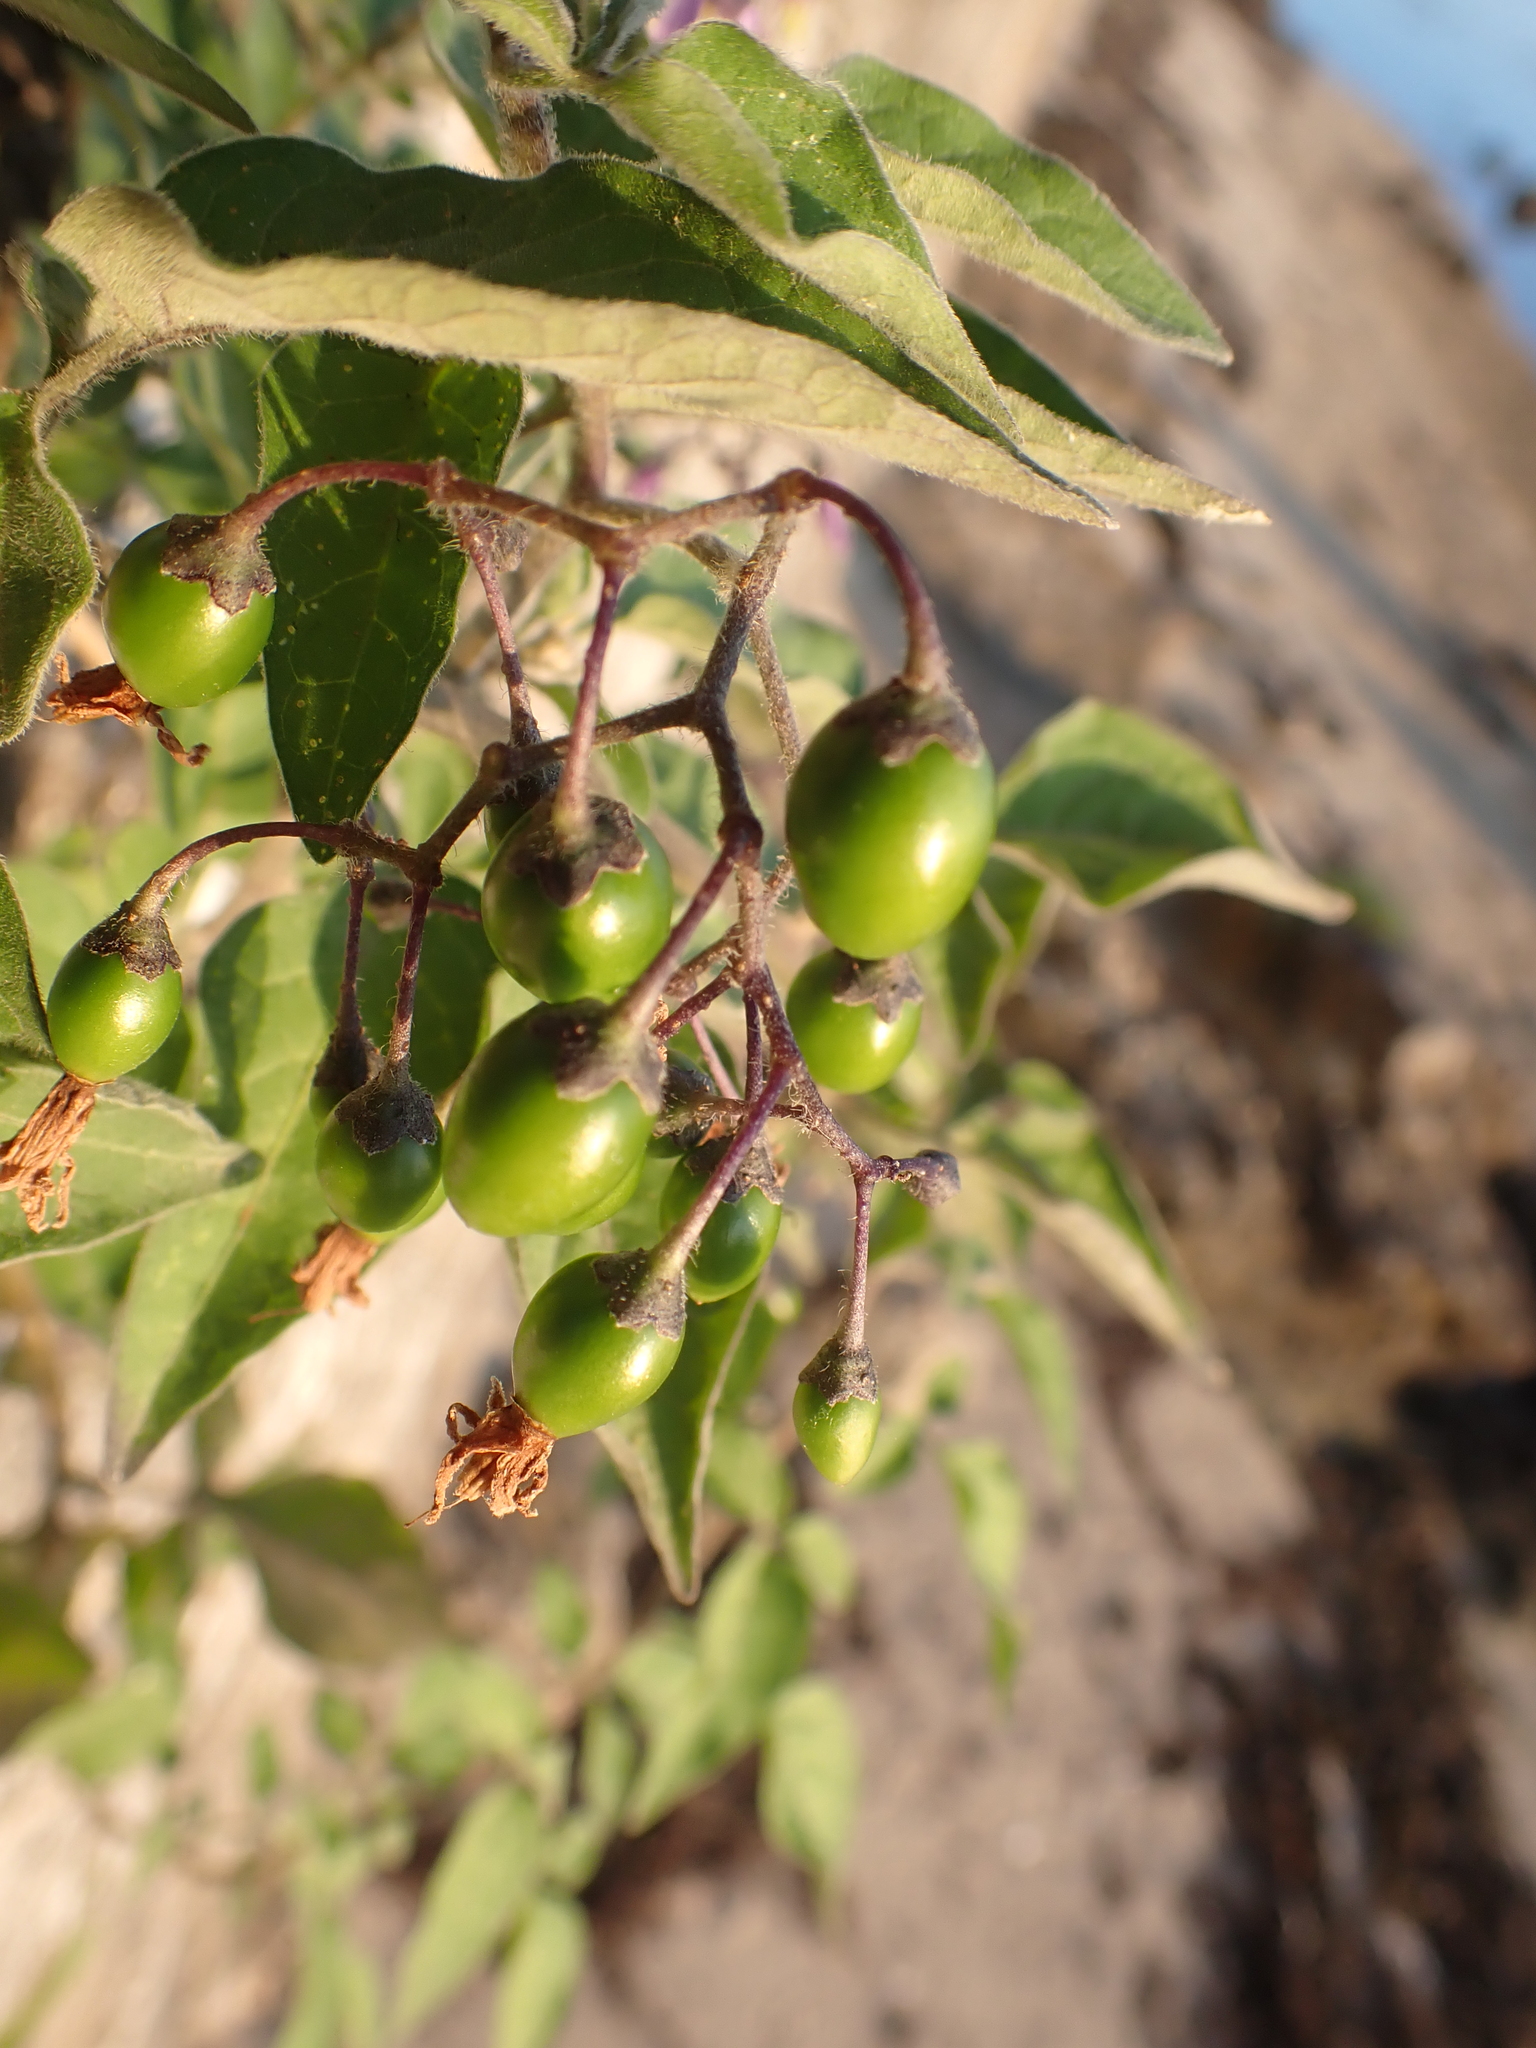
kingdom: Plantae
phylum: Tracheophyta
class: Magnoliopsida
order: Solanales
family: Solanaceae
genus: Solanum
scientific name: Solanum dulcamara
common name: Climbing nightshade
